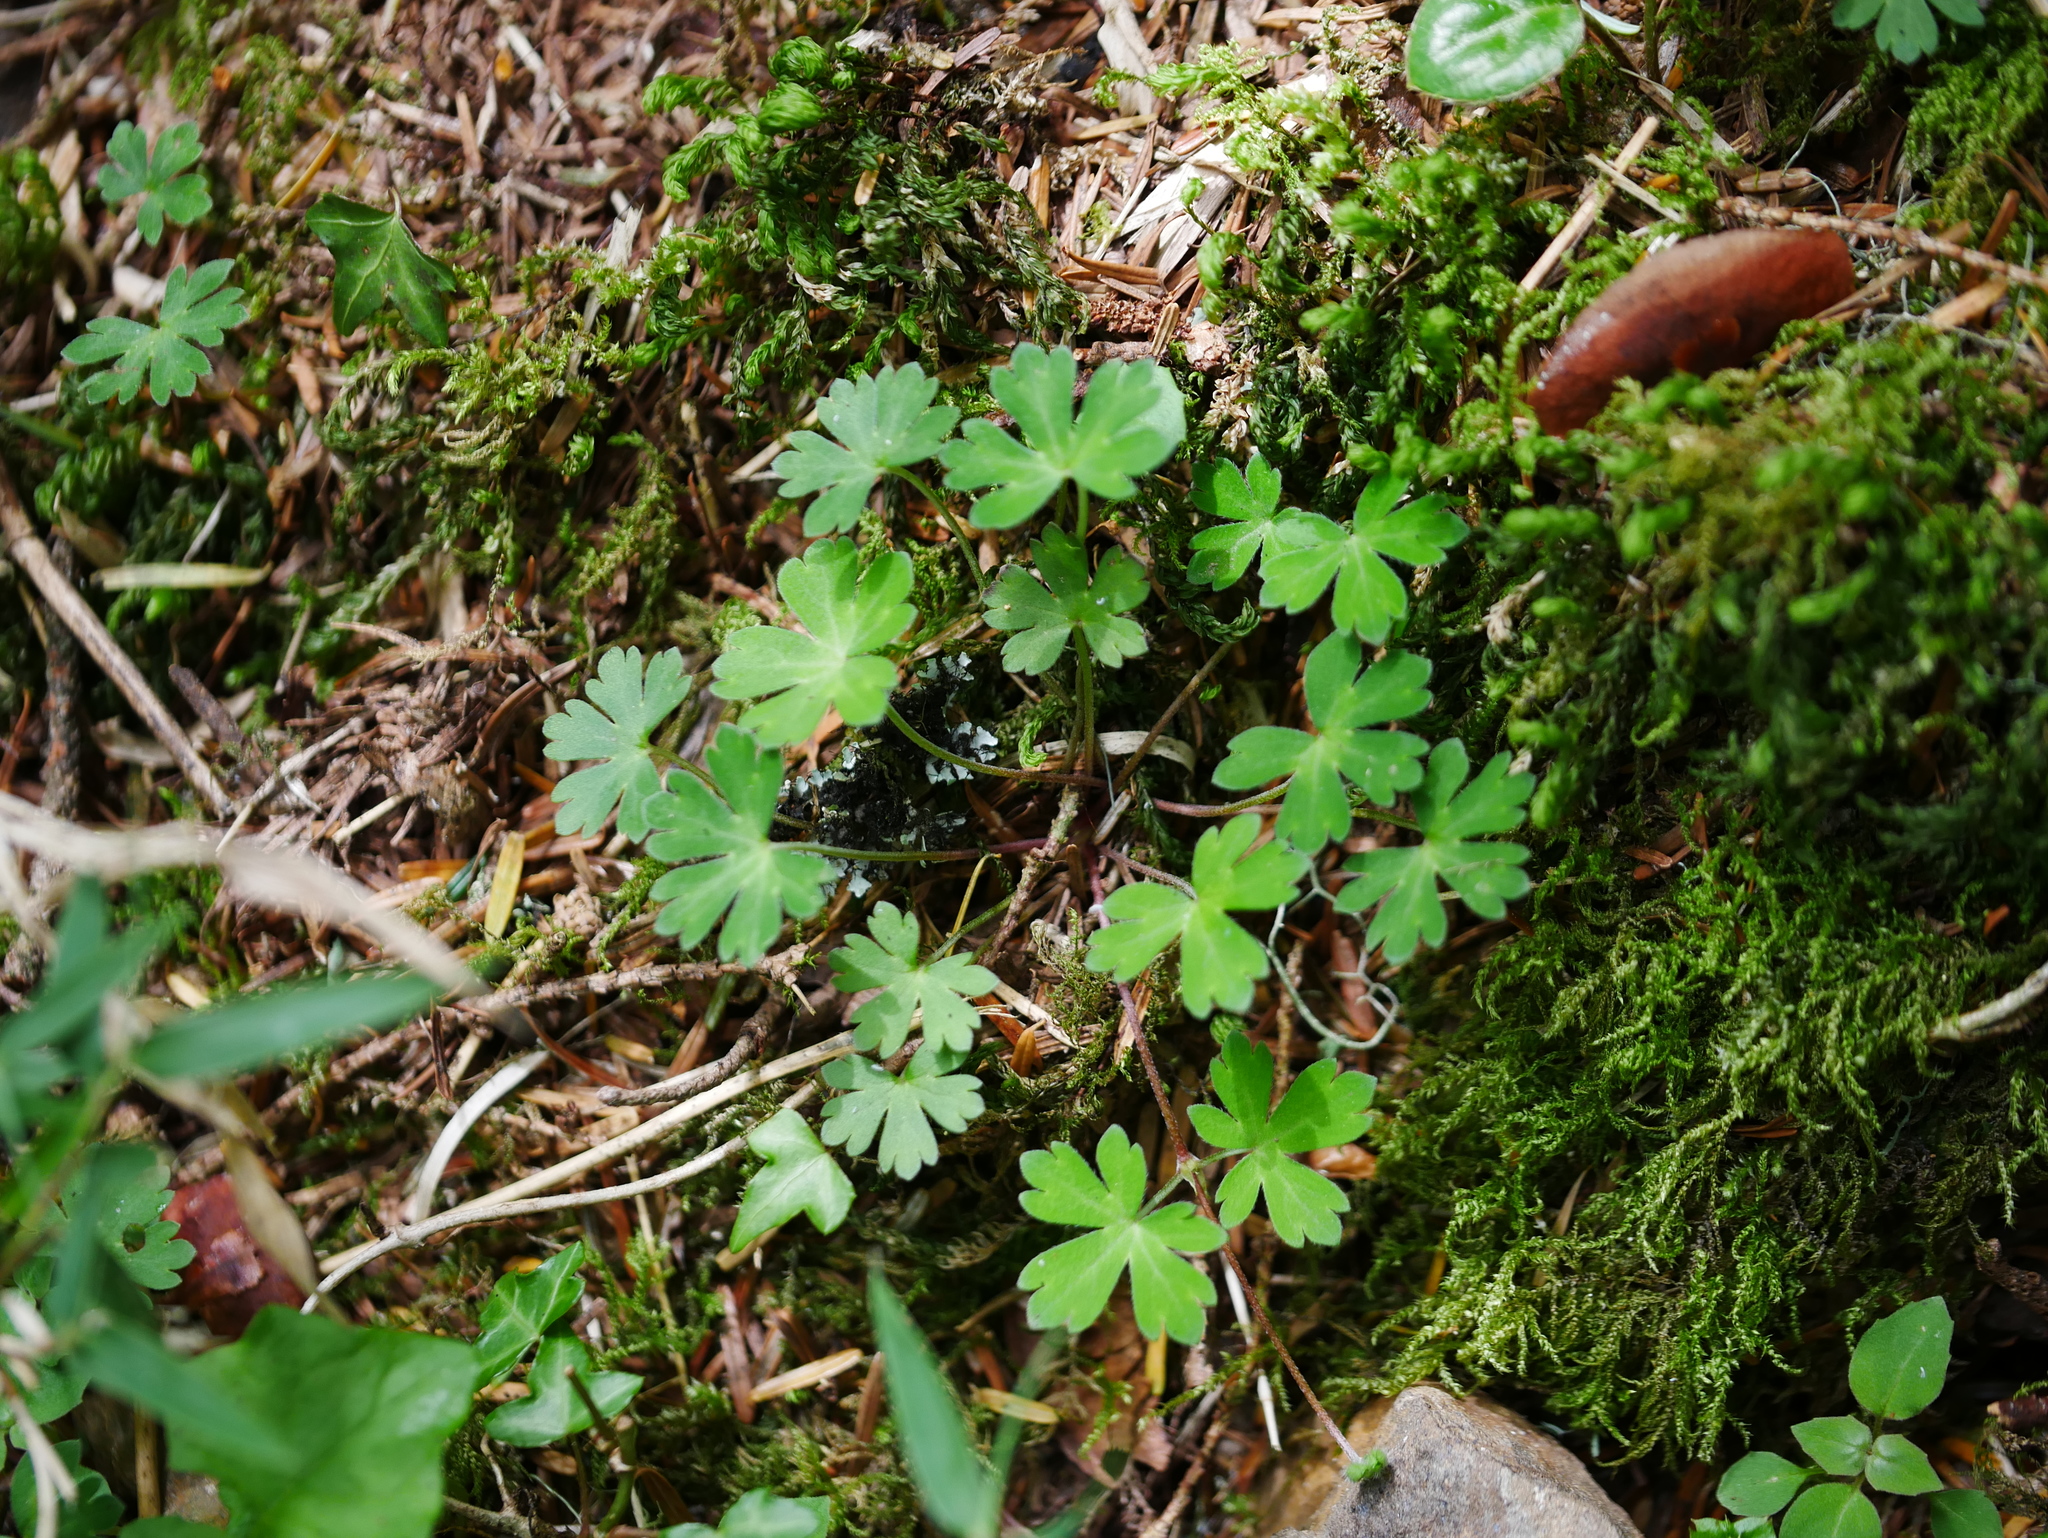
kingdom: Plantae
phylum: Tracheophyta
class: Magnoliopsida
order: Geraniales
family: Geraniaceae
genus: Geranium
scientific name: Geranium suzukii
